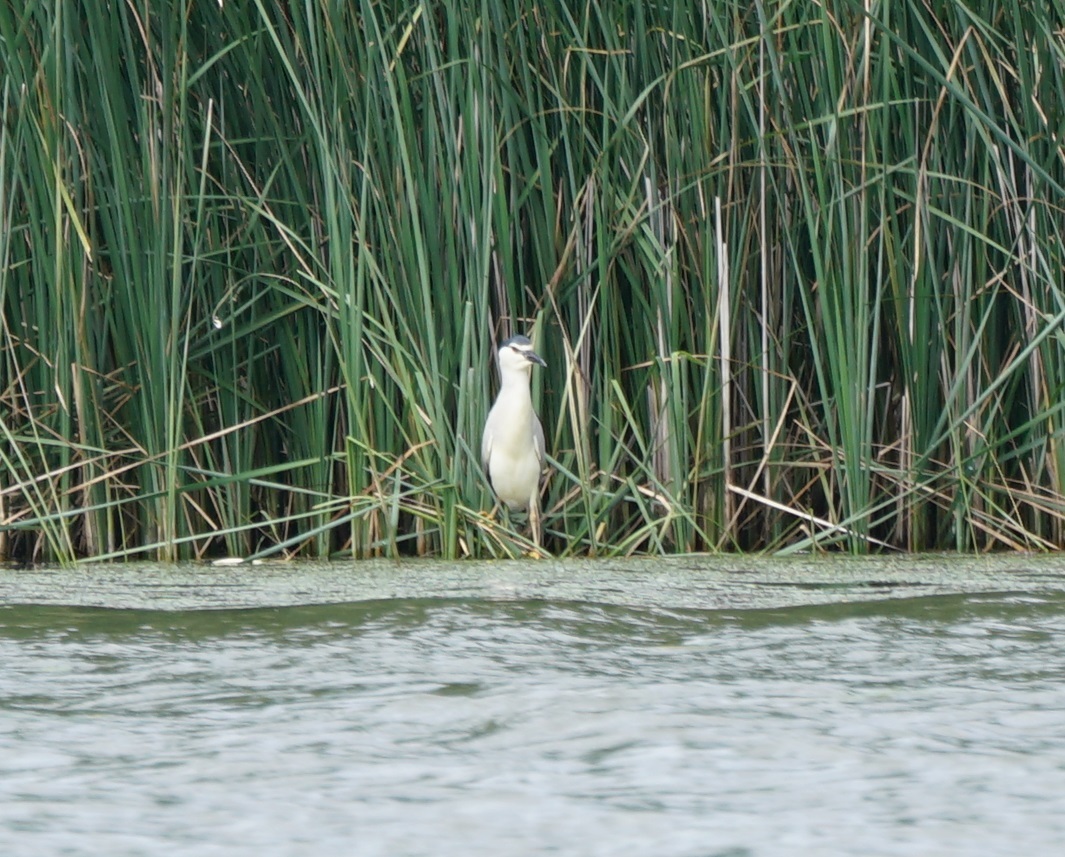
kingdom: Animalia
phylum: Chordata
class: Aves
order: Pelecaniformes
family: Ardeidae
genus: Nycticorax
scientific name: Nycticorax nycticorax
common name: Black-crowned night heron
